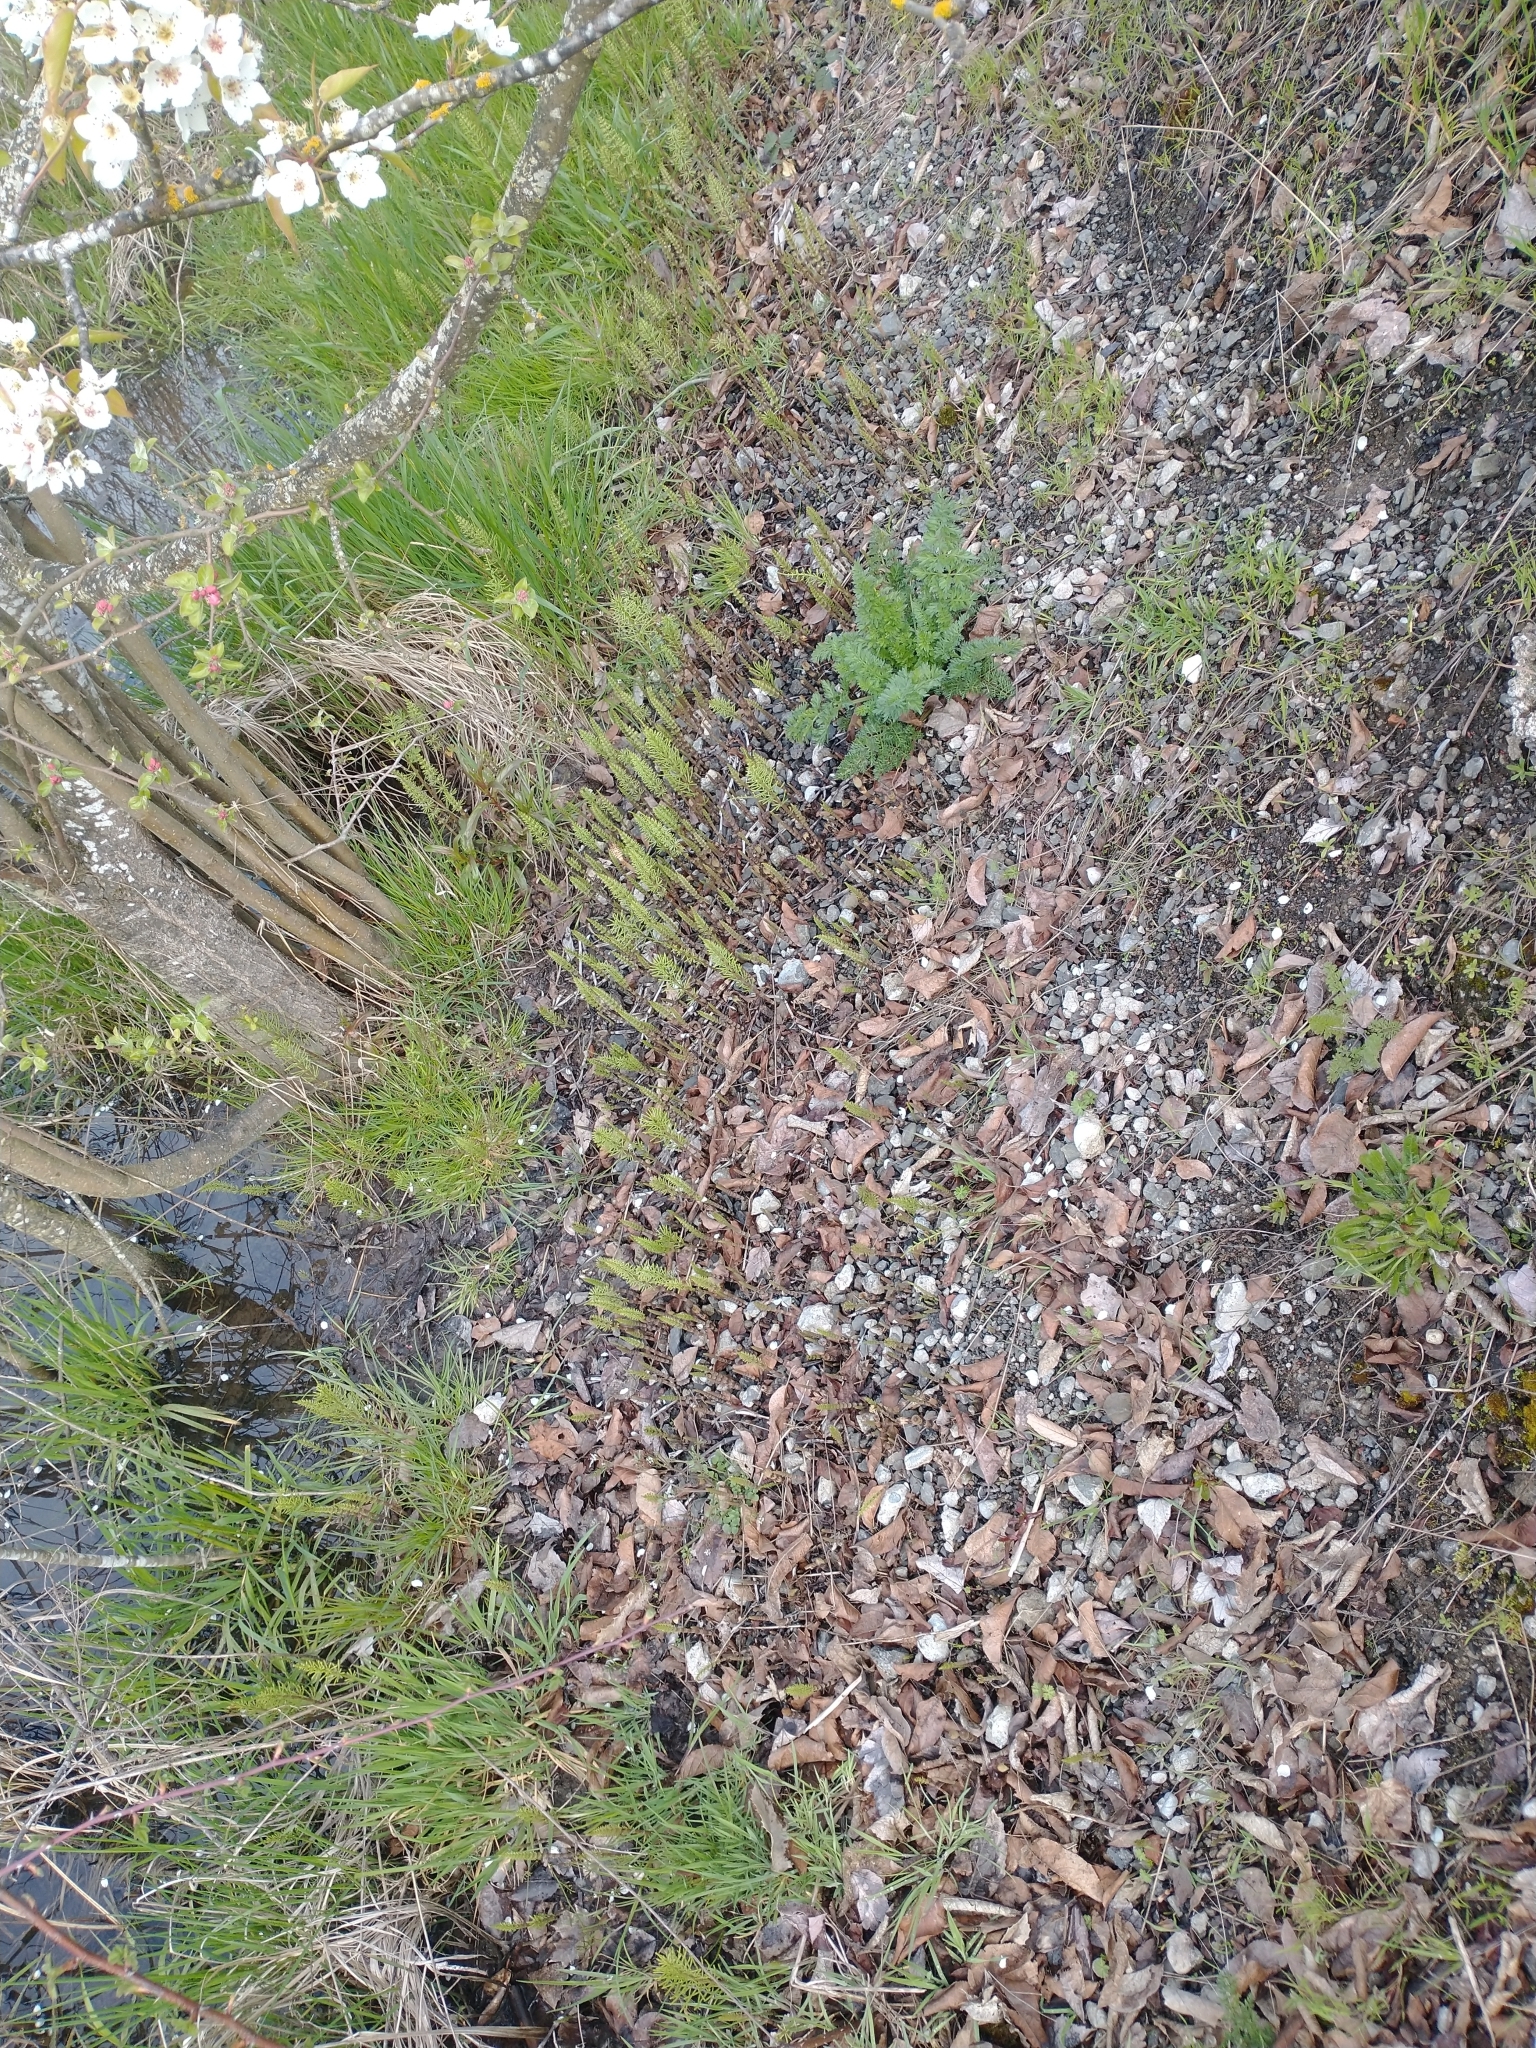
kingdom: Plantae
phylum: Tracheophyta
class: Polypodiopsida
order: Equisetales
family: Equisetaceae
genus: Equisetum
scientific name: Equisetum arvense
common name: Field horsetail
